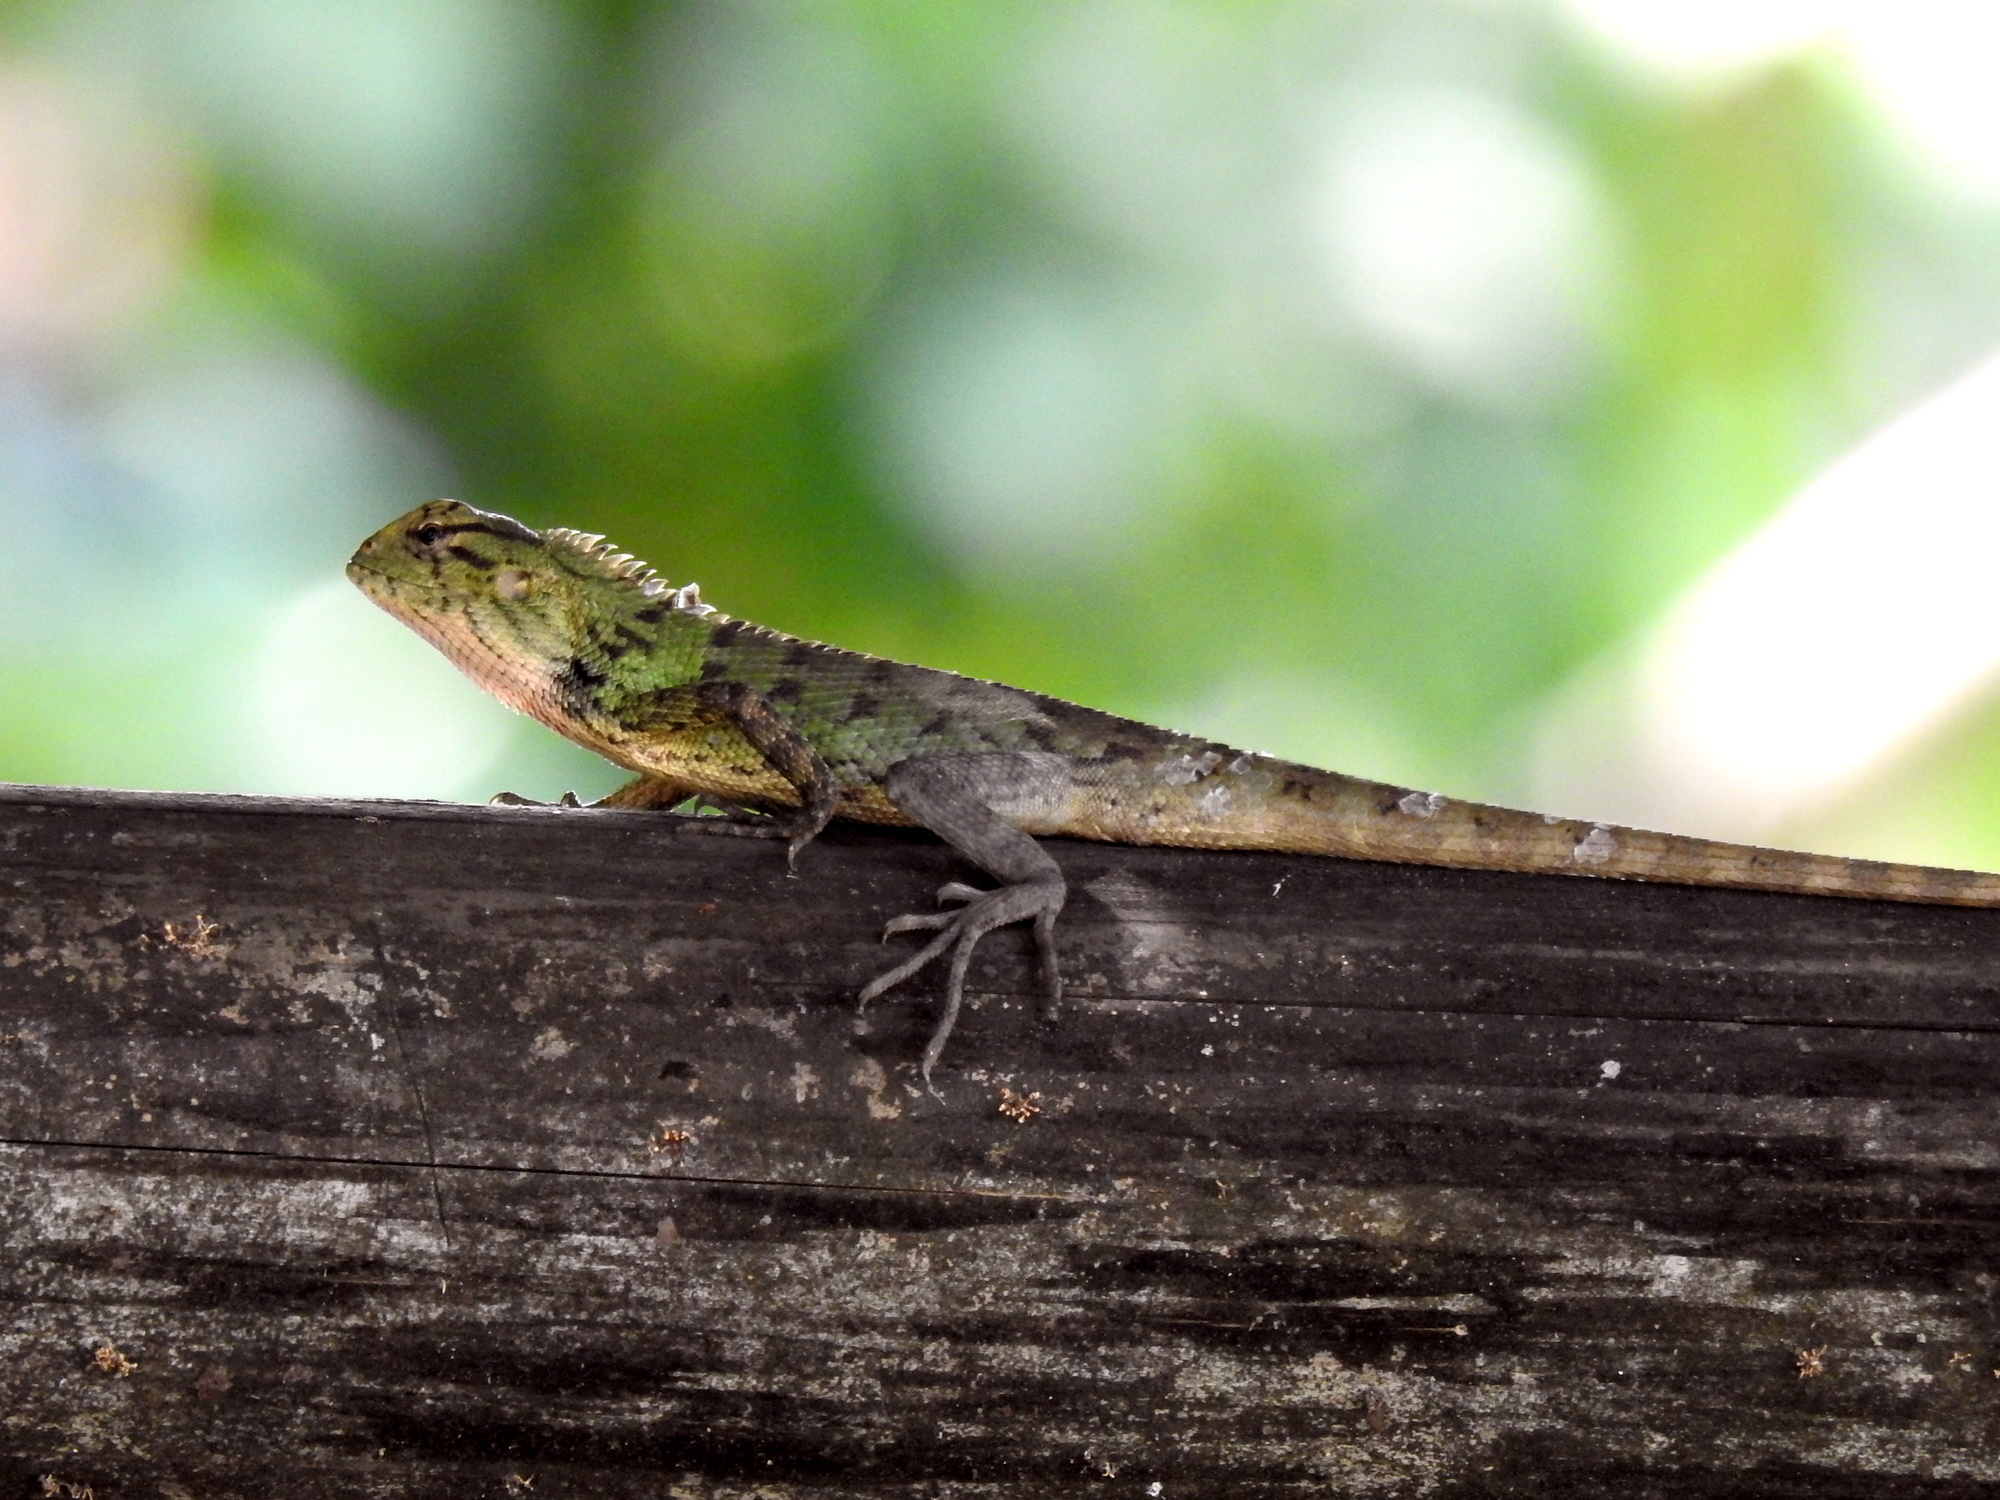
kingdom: Animalia
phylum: Chordata
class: Squamata
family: Agamidae
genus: Calotes
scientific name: Calotes versicolor
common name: Oriental garden lizard
